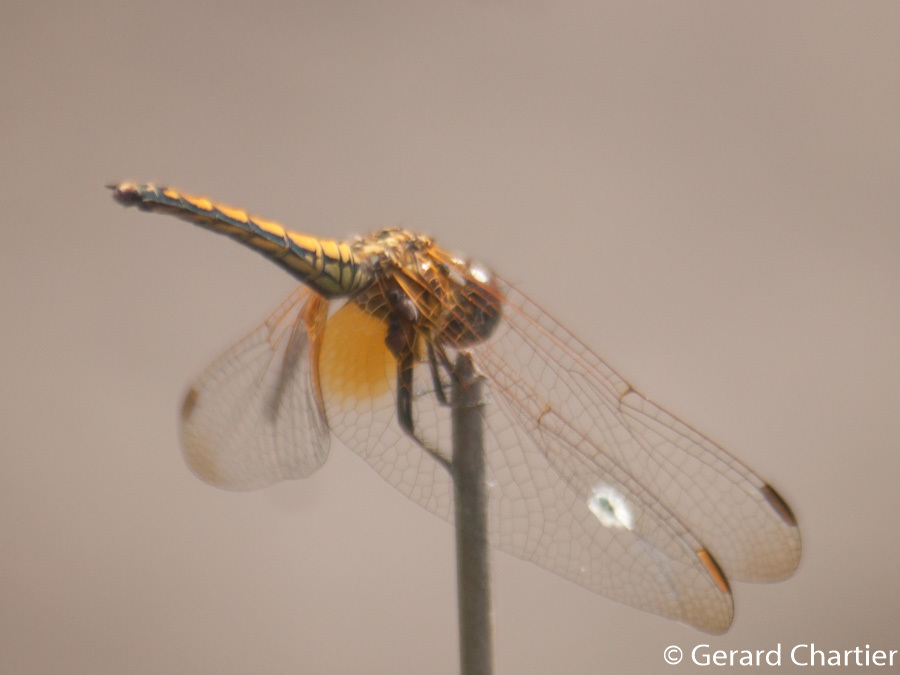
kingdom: Animalia
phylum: Arthropoda
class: Insecta
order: Odonata
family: Libellulidae
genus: Trithemis
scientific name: Trithemis aurora
